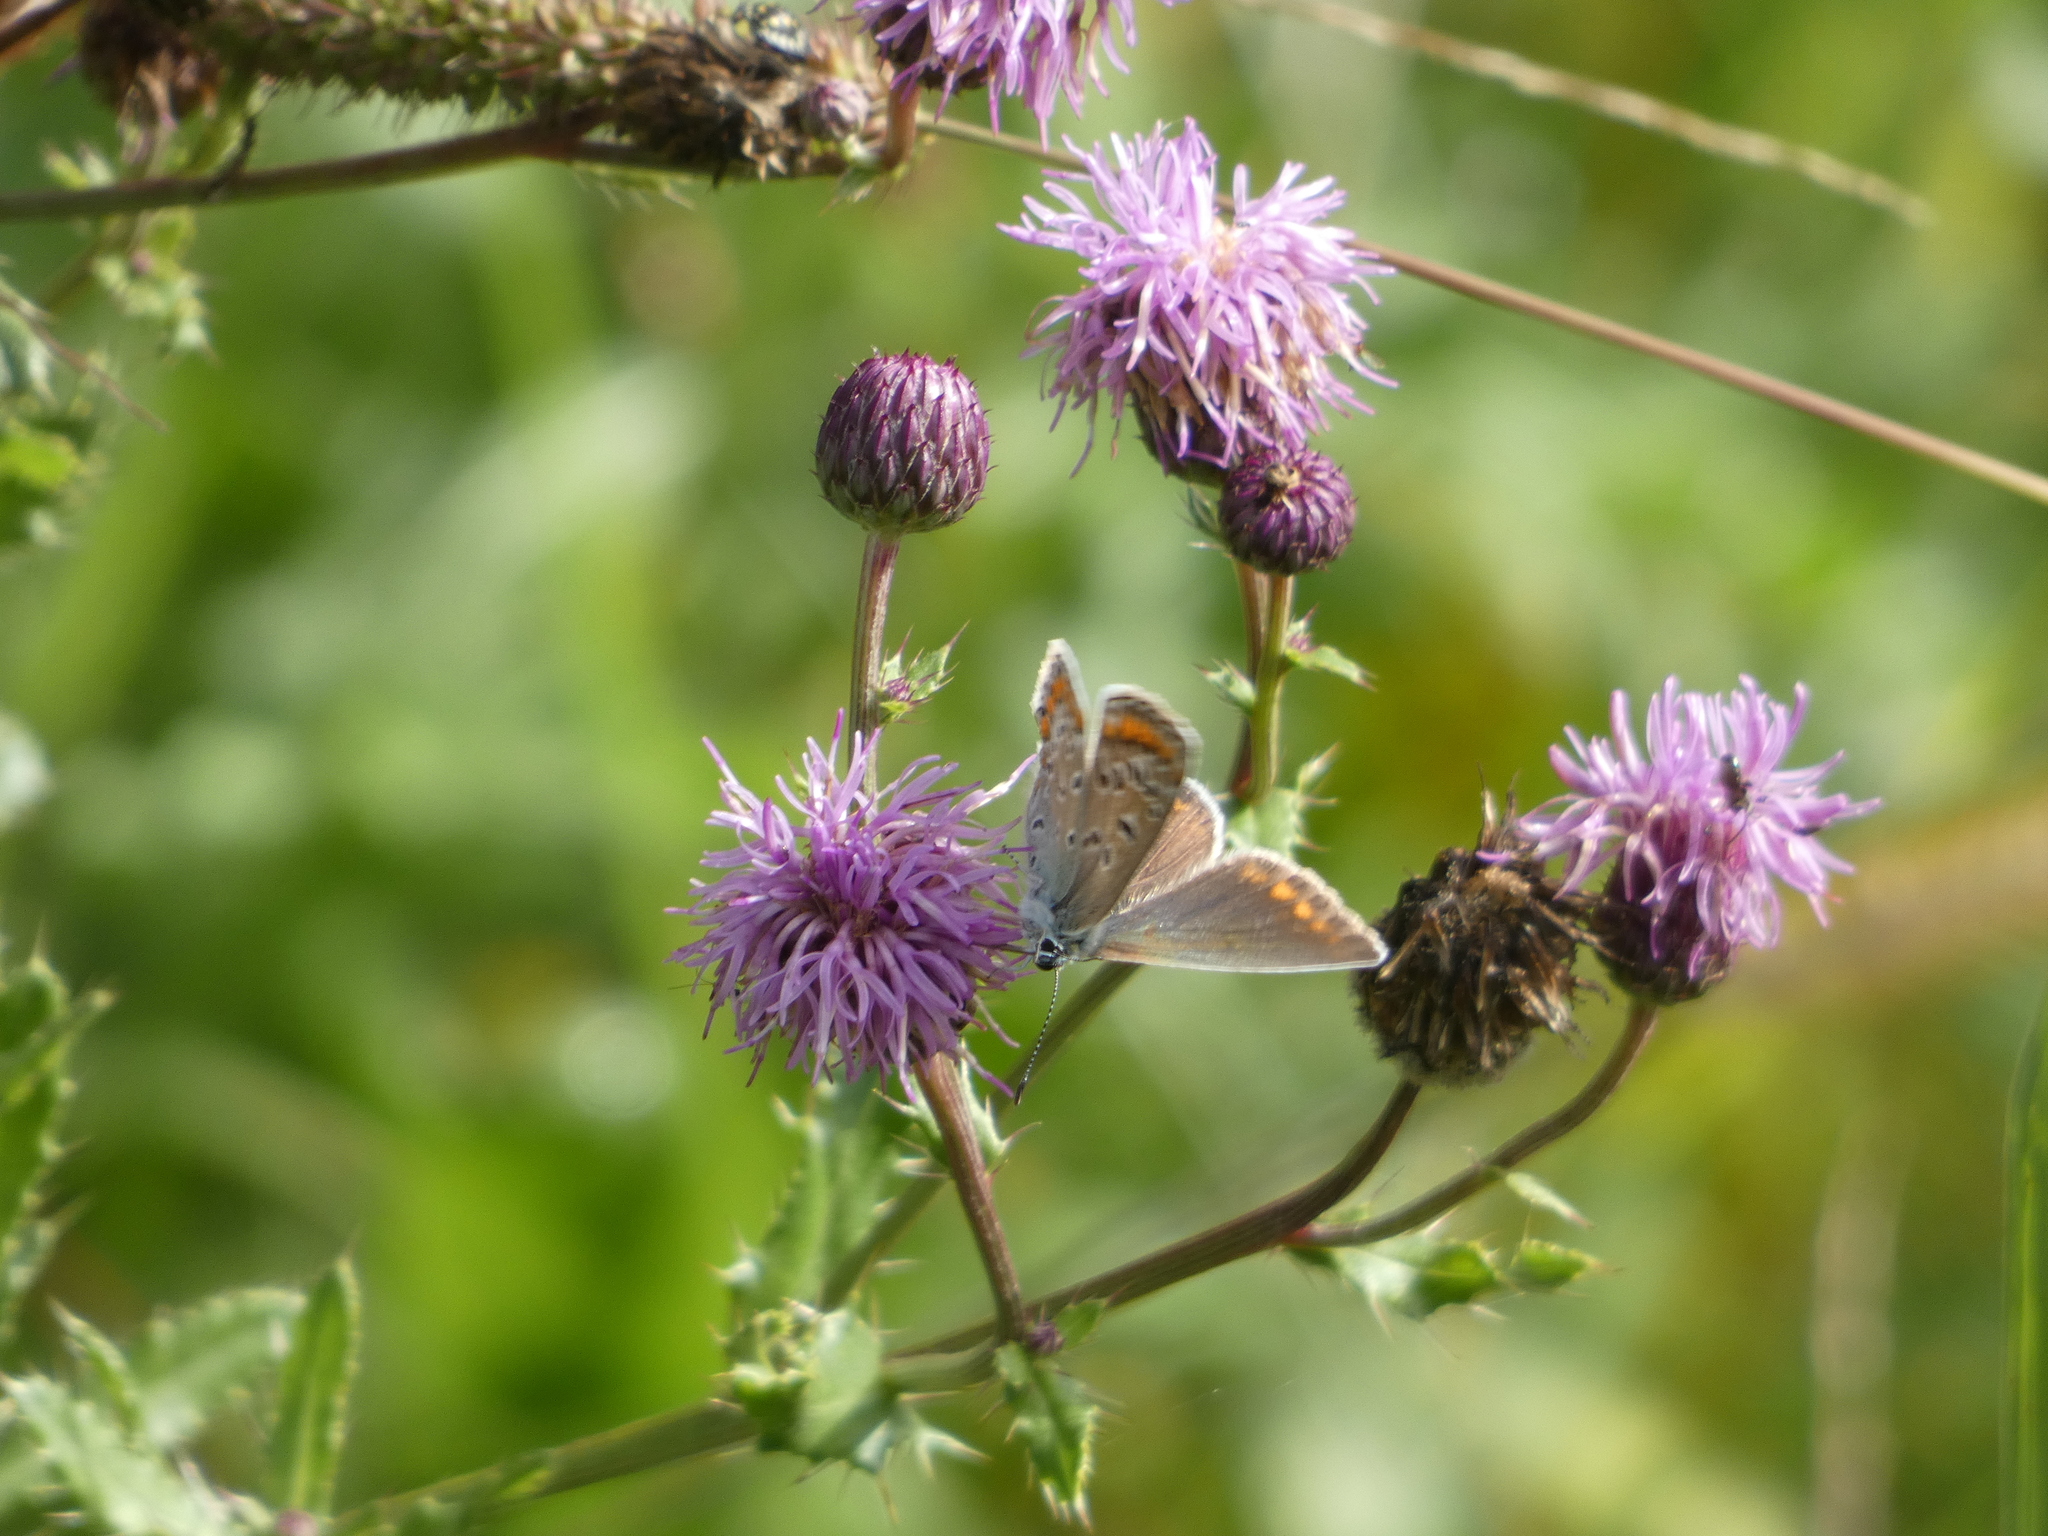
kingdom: Animalia
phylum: Arthropoda
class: Insecta
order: Lepidoptera
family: Lycaenidae
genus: Polyommatus
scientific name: Polyommatus icarus
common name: Common blue
